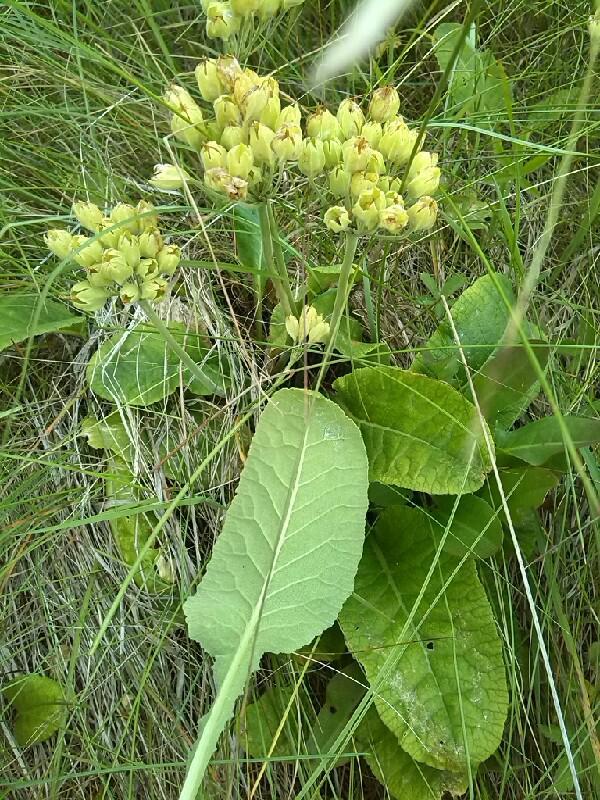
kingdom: Plantae
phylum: Tracheophyta
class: Magnoliopsida
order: Ericales
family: Primulaceae
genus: Primula
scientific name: Primula veris
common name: Cowslip
